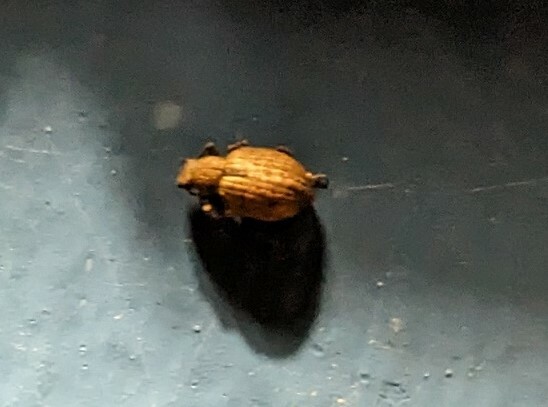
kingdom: Animalia
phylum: Arthropoda
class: Insecta
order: Coleoptera
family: Curculionidae
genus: Strophosoma
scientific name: Strophosoma melanogrammum
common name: Weevil
